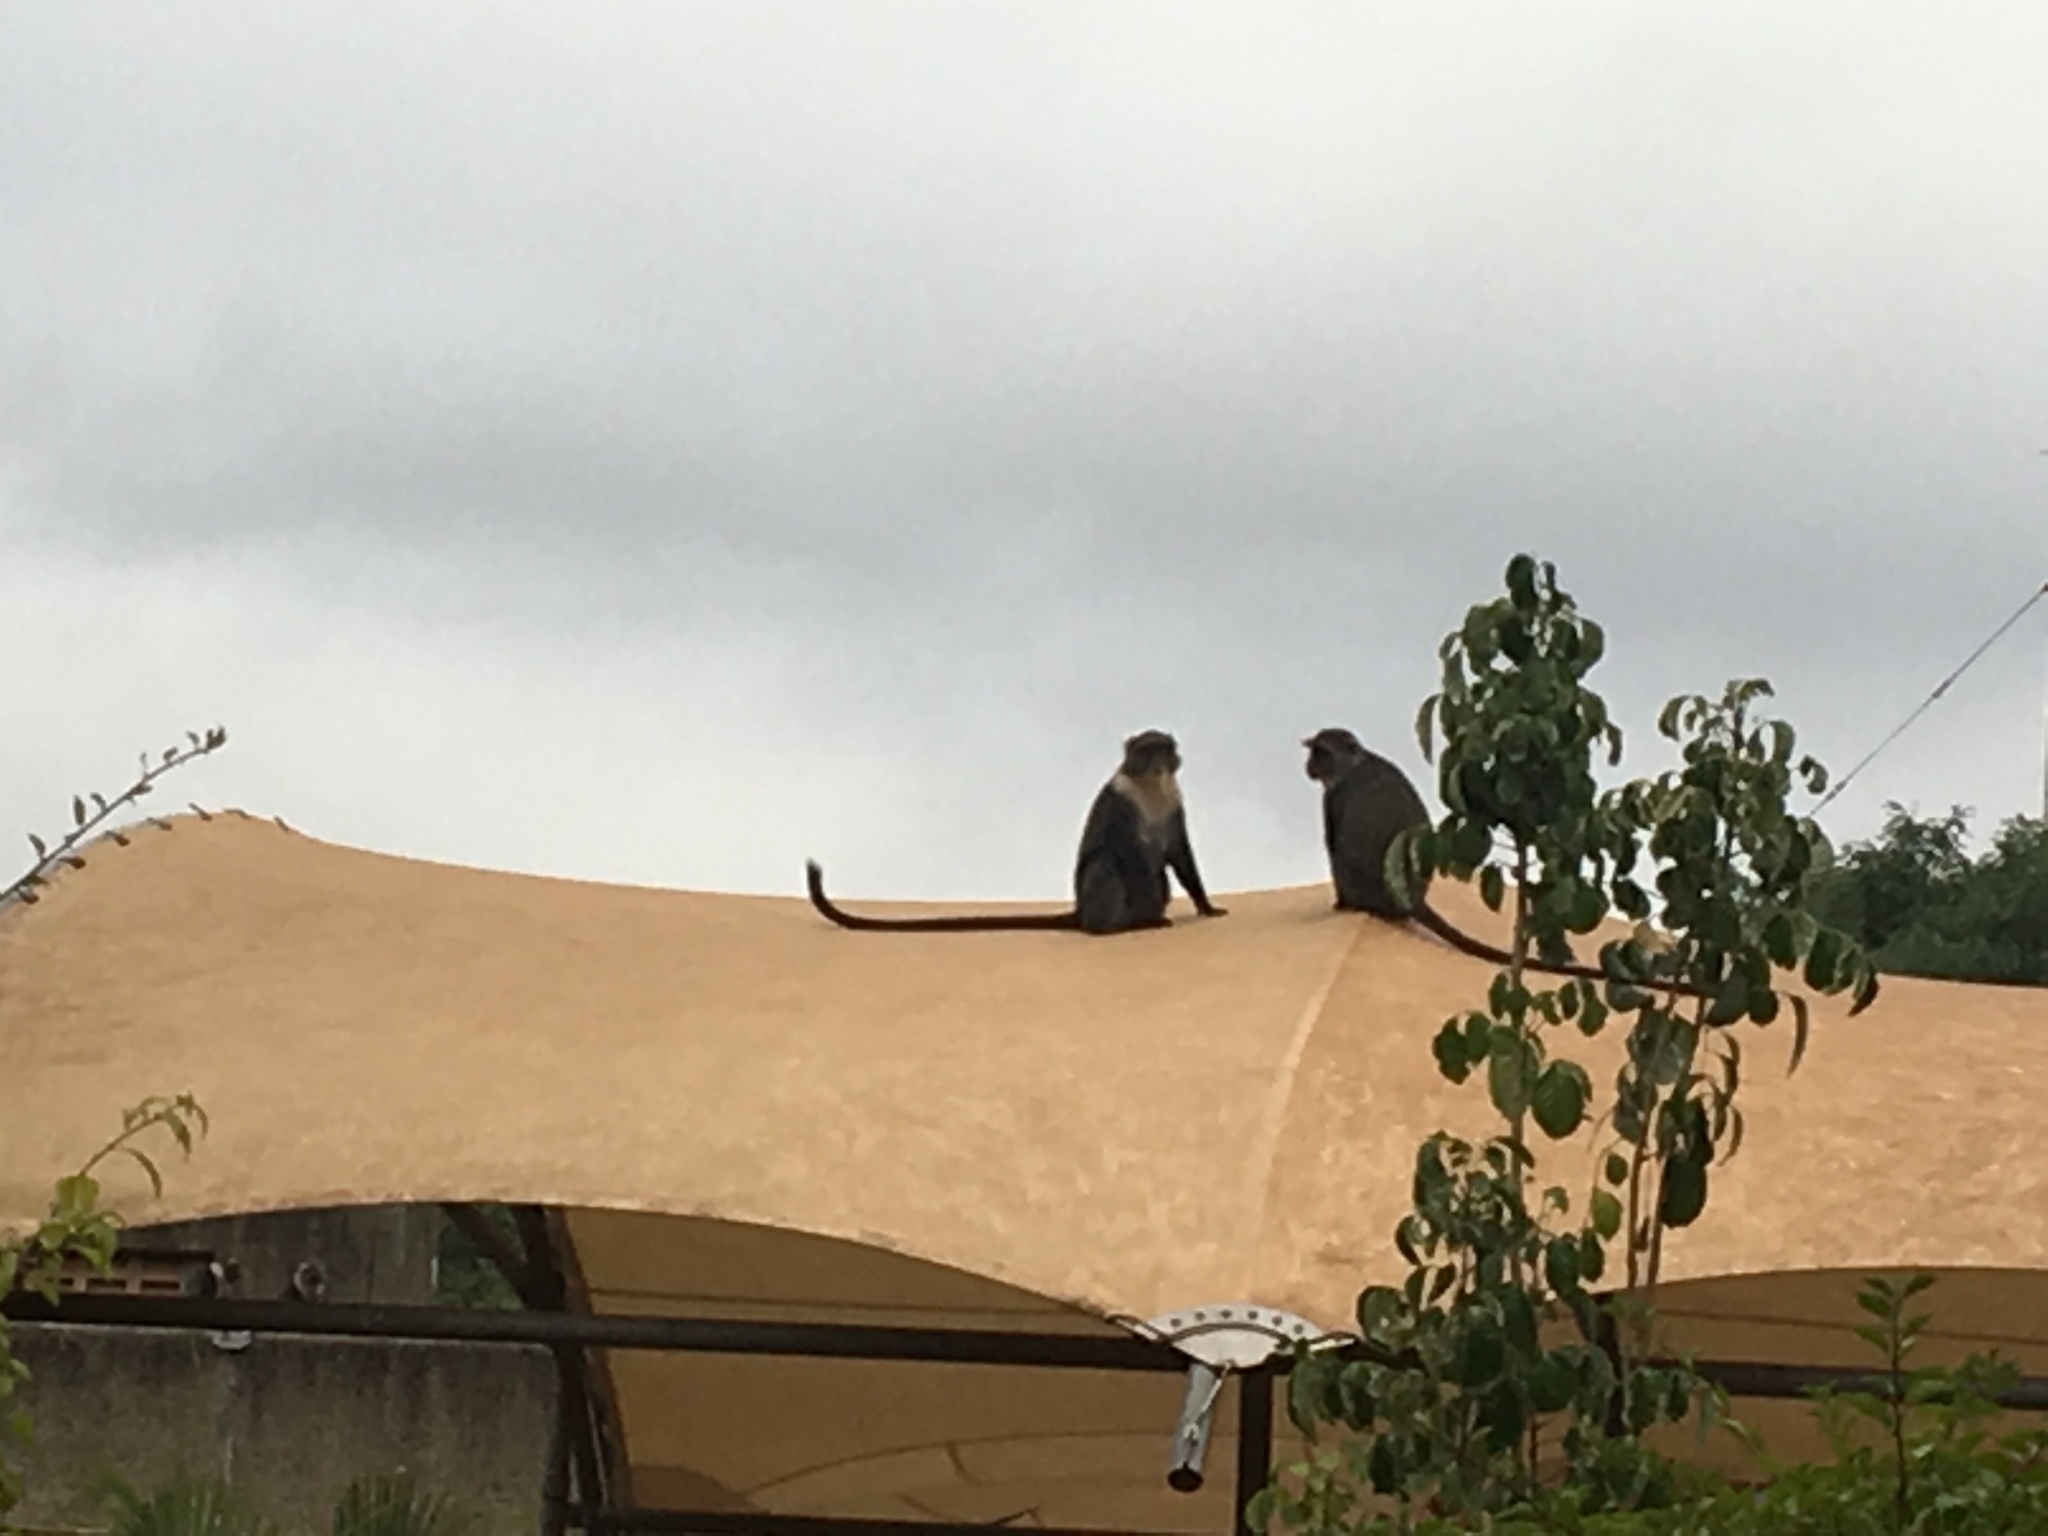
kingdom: Animalia
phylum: Chordata
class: Mammalia
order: Primates
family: Cercopithecidae
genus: Cercopithecus
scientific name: Cercopithecus mitis
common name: Blue monkey
